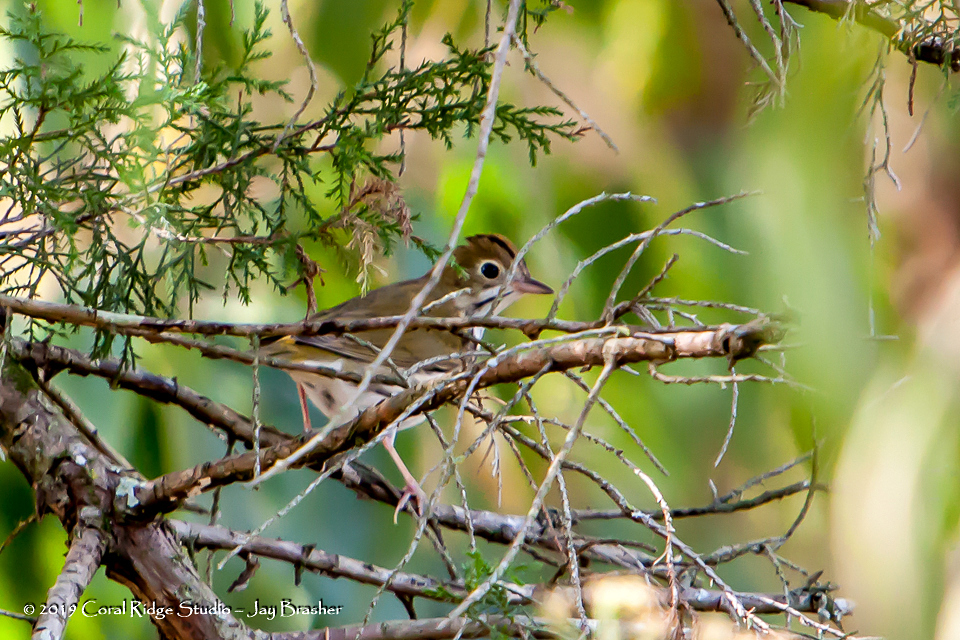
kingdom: Animalia
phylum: Chordata
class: Aves
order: Passeriformes
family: Parulidae
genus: Seiurus
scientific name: Seiurus aurocapilla
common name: Ovenbird
